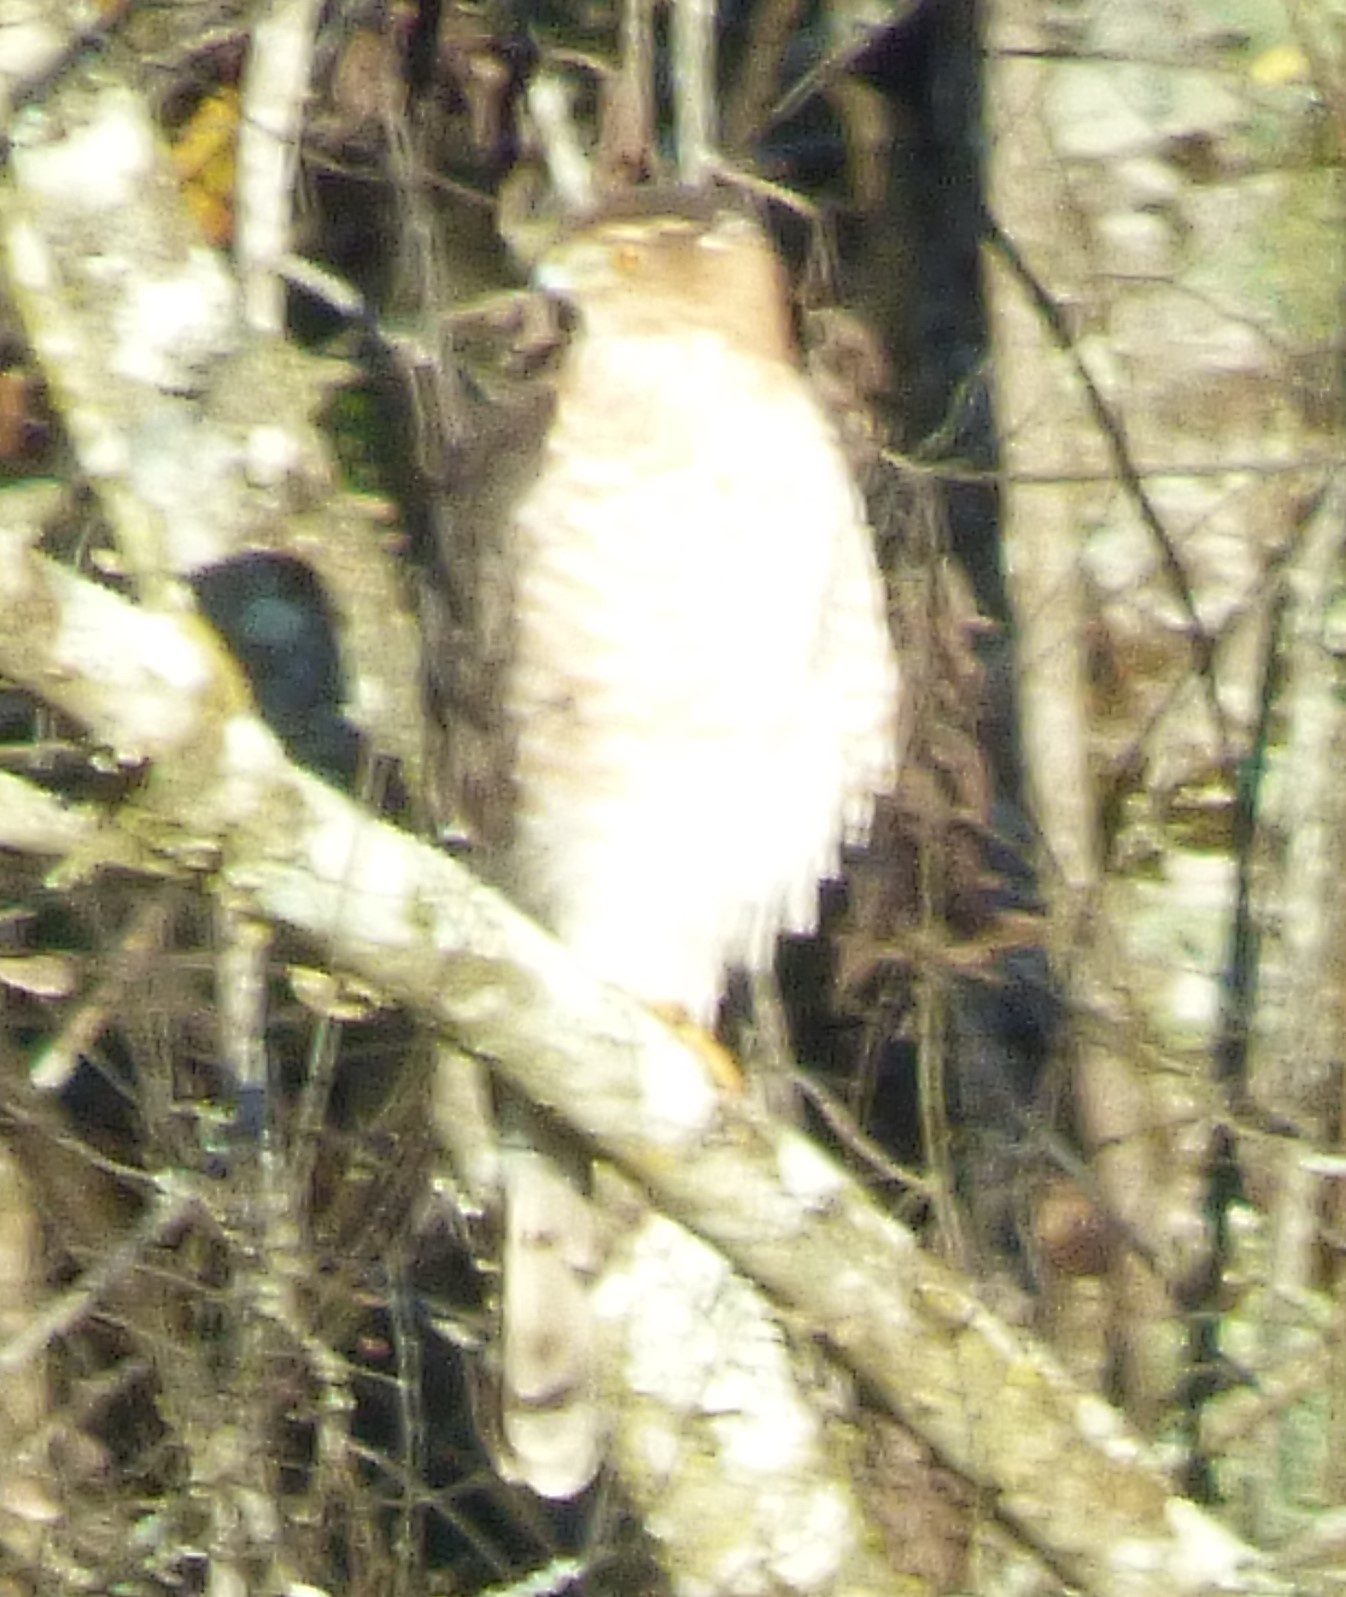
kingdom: Animalia
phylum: Chordata
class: Aves
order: Accipitriformes
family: Accipitridae
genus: Accipiter
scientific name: Accipiter cooperii
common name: Cooper's hawk
